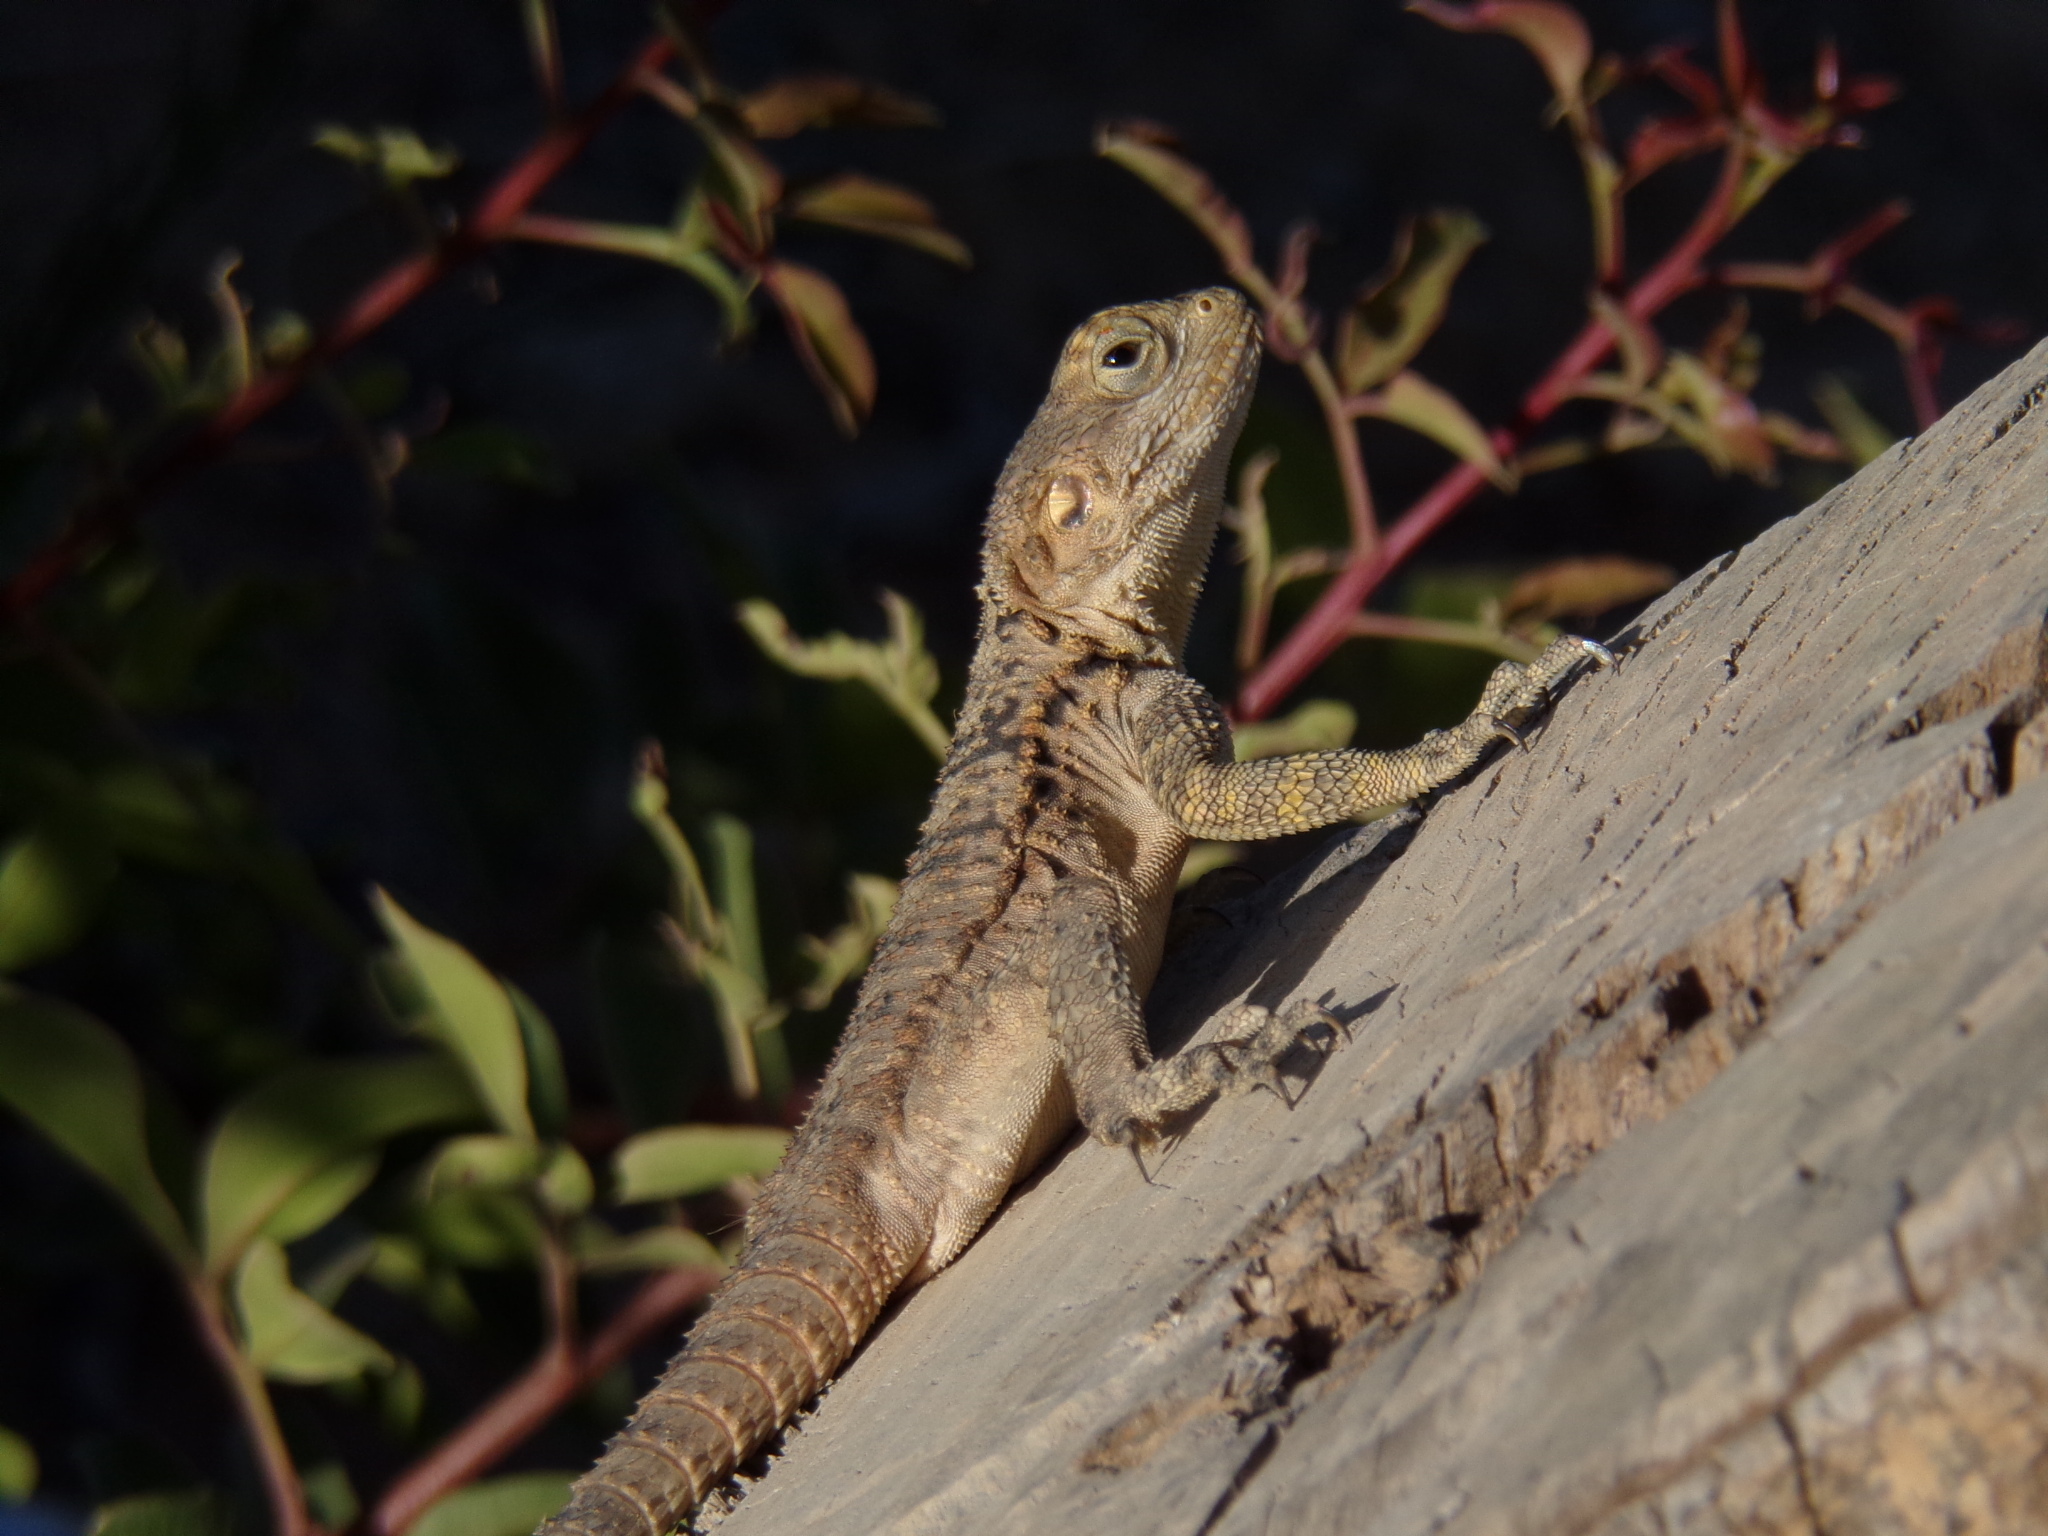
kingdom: Animalia
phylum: Chordata
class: Squamata
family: Agamidae
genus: Laudakia
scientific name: Laudakia
